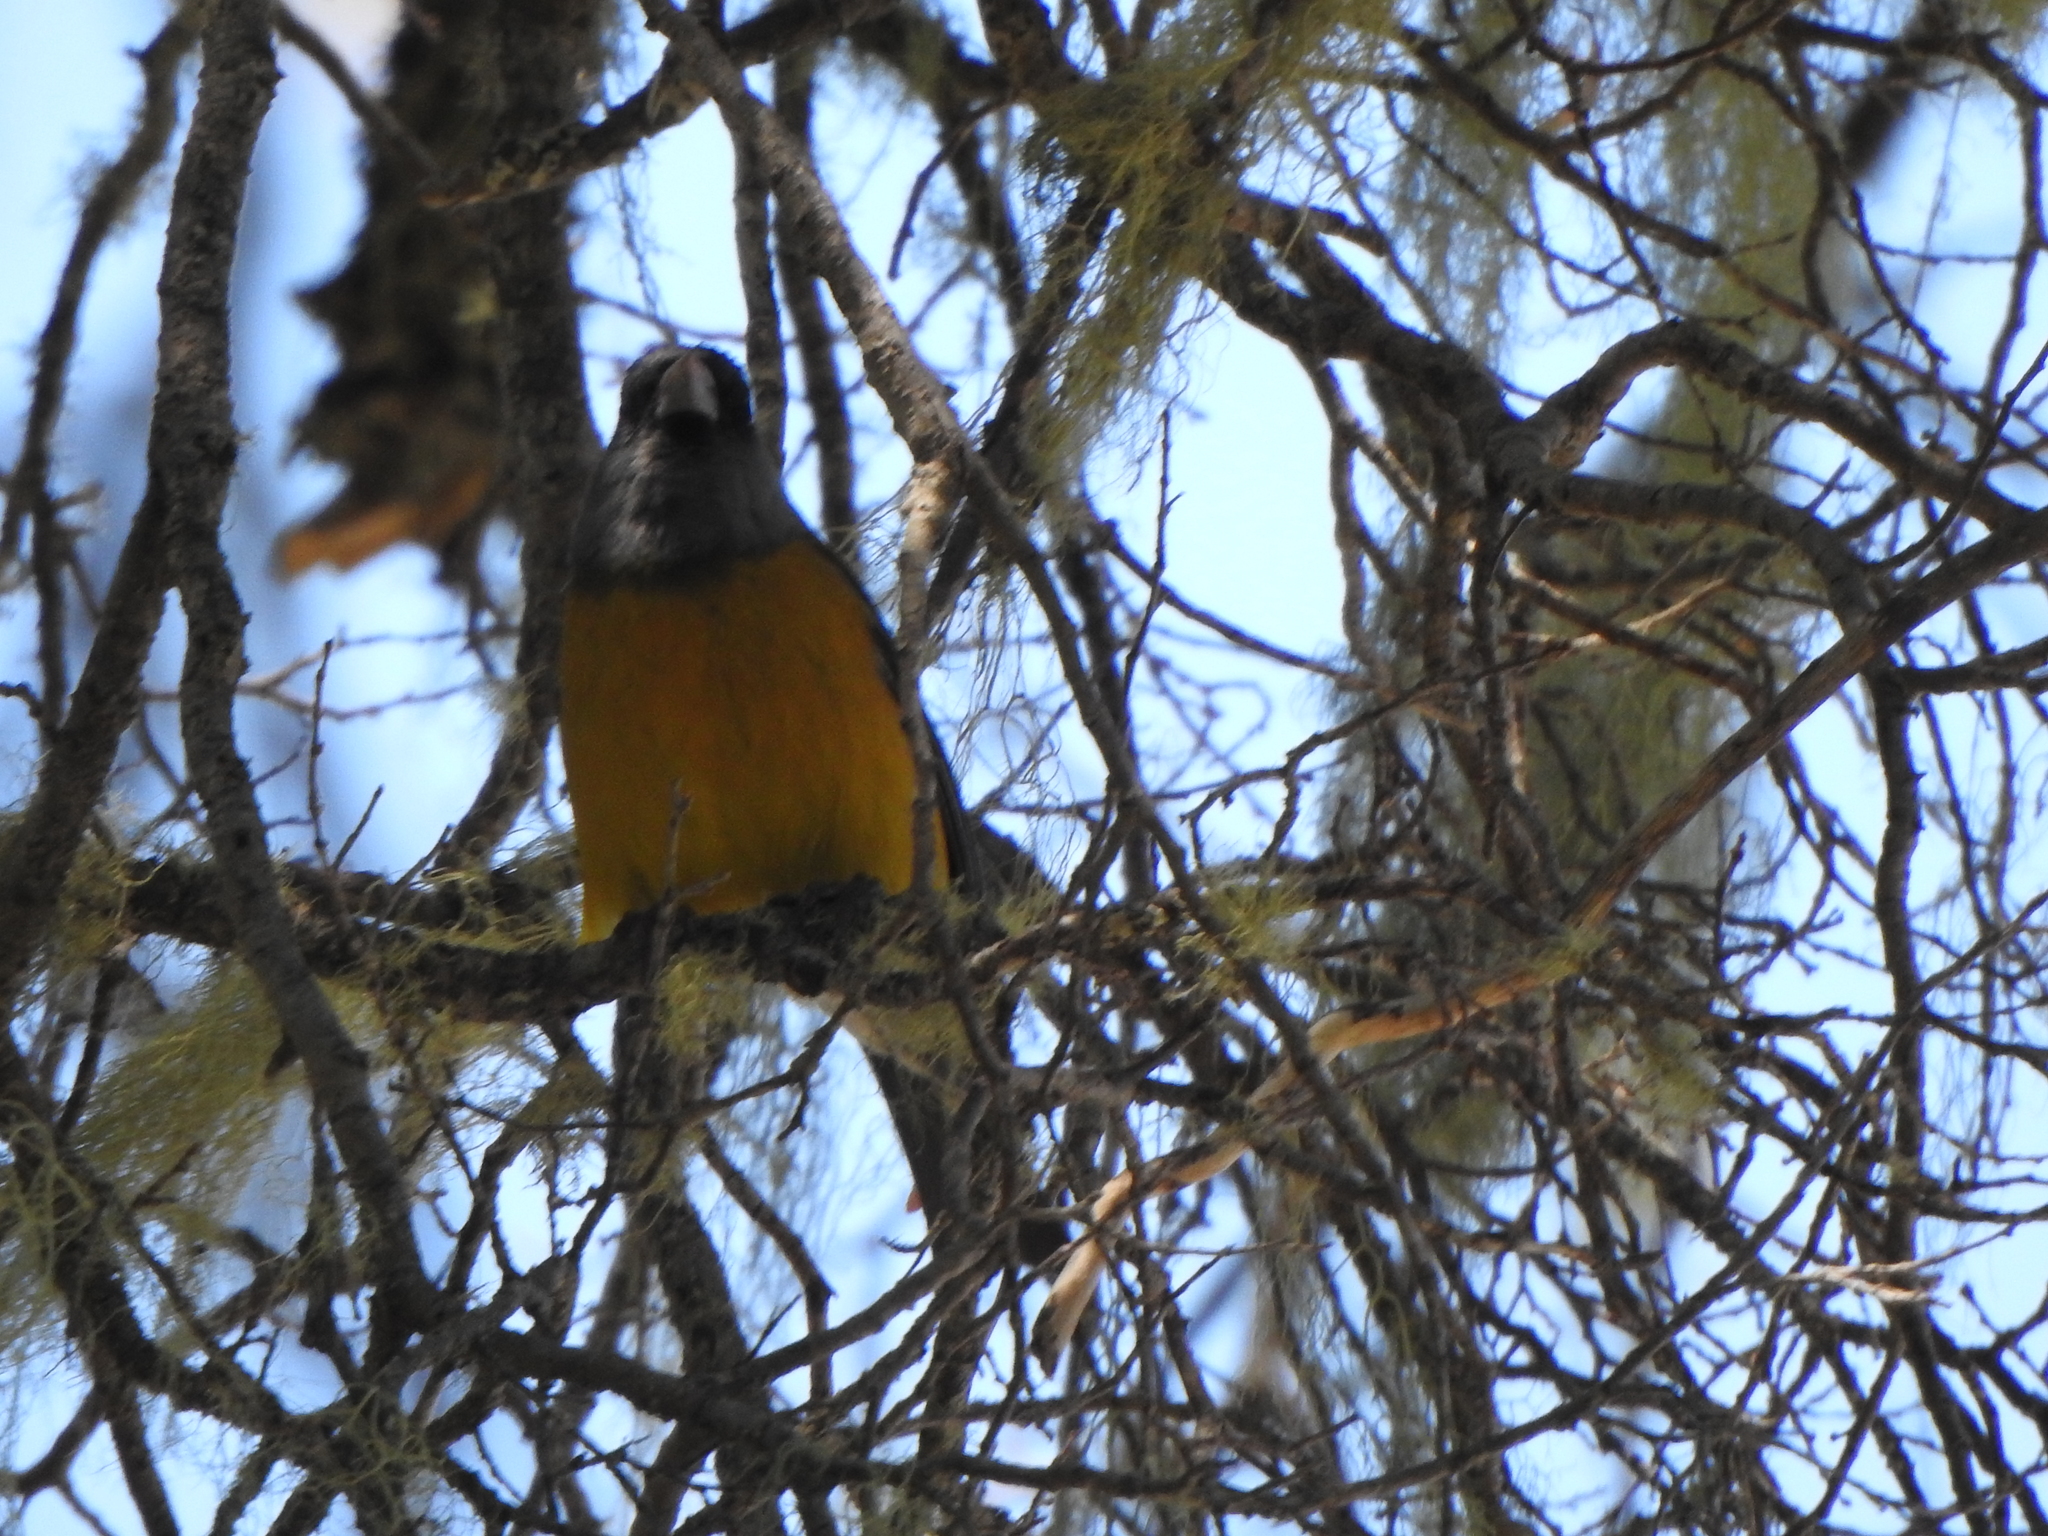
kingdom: Animalia
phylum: Chordata
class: Aves
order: Passeriformes
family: Thraupidae
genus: Phrygilus
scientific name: Phrygilus patagonicus
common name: Patagonian sierra finch
